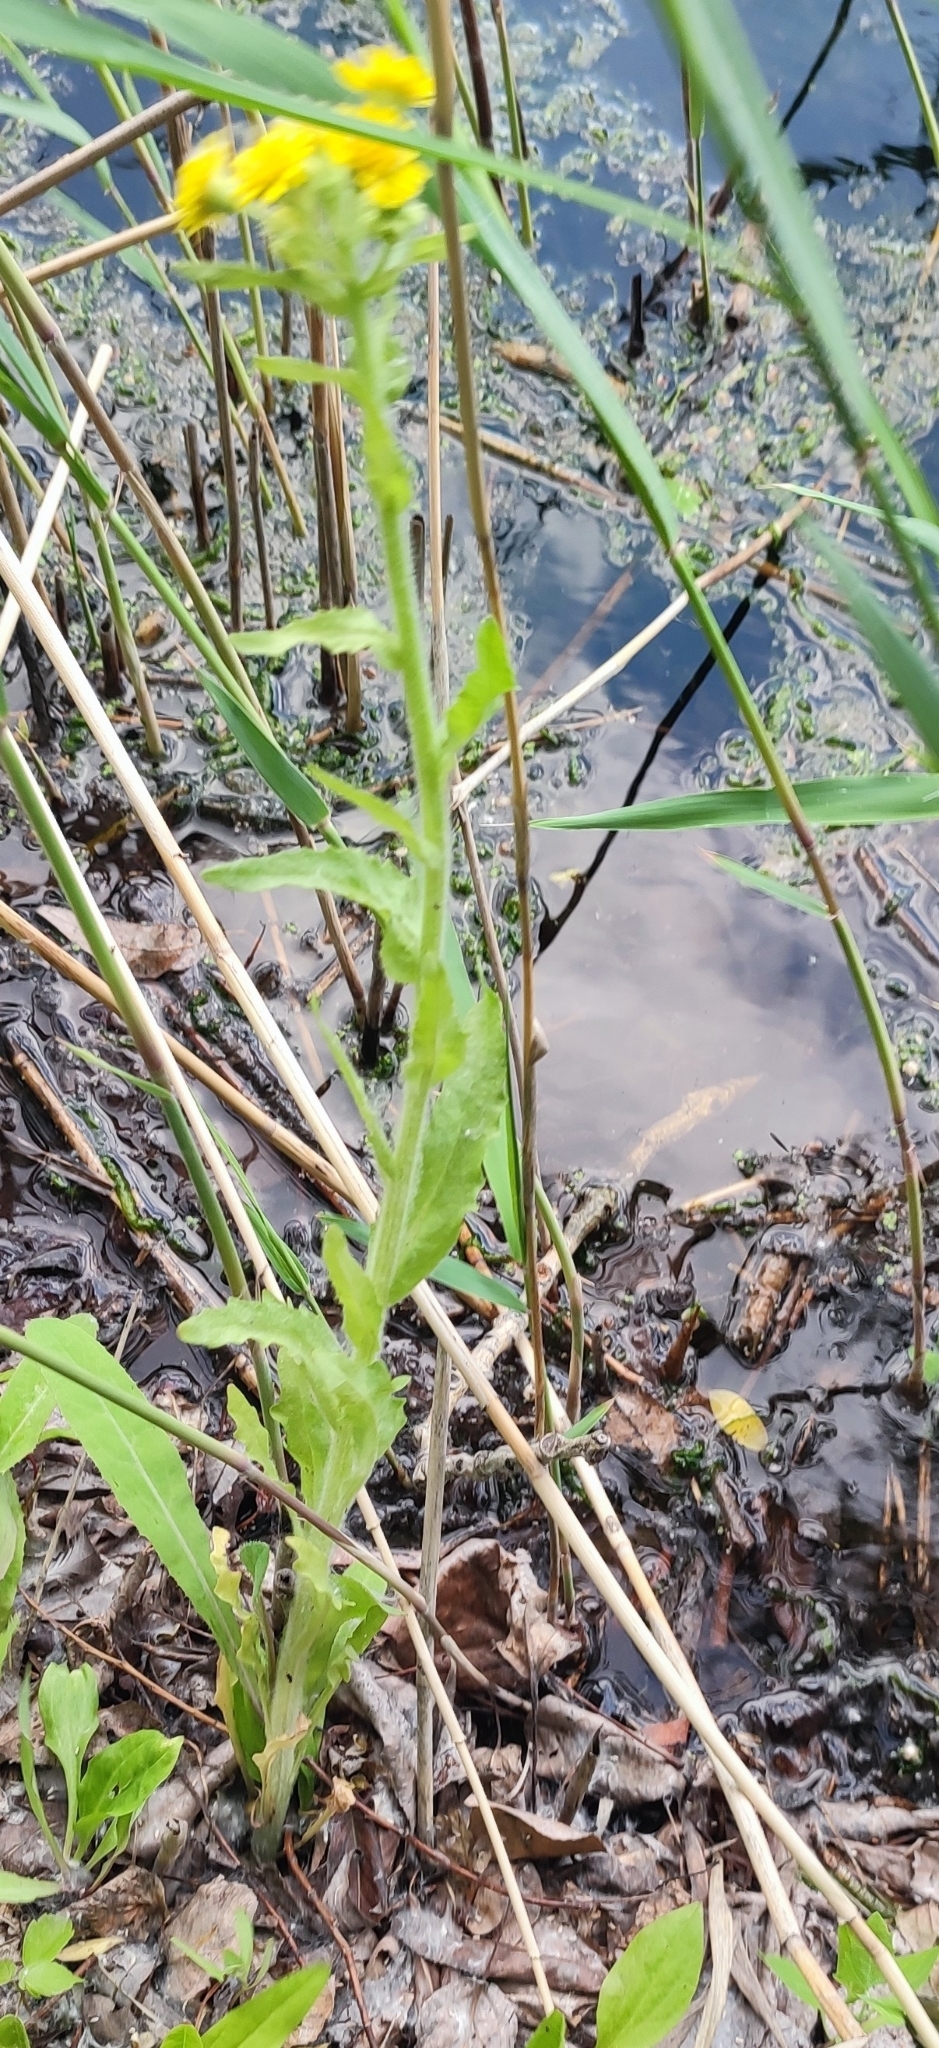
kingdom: Plantae
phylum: Tracheophyta
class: Magnoliopsida
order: Asterales
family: Asteraceae
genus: Tephroseris
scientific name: Tephroseris palustris
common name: Marsh fleawort
